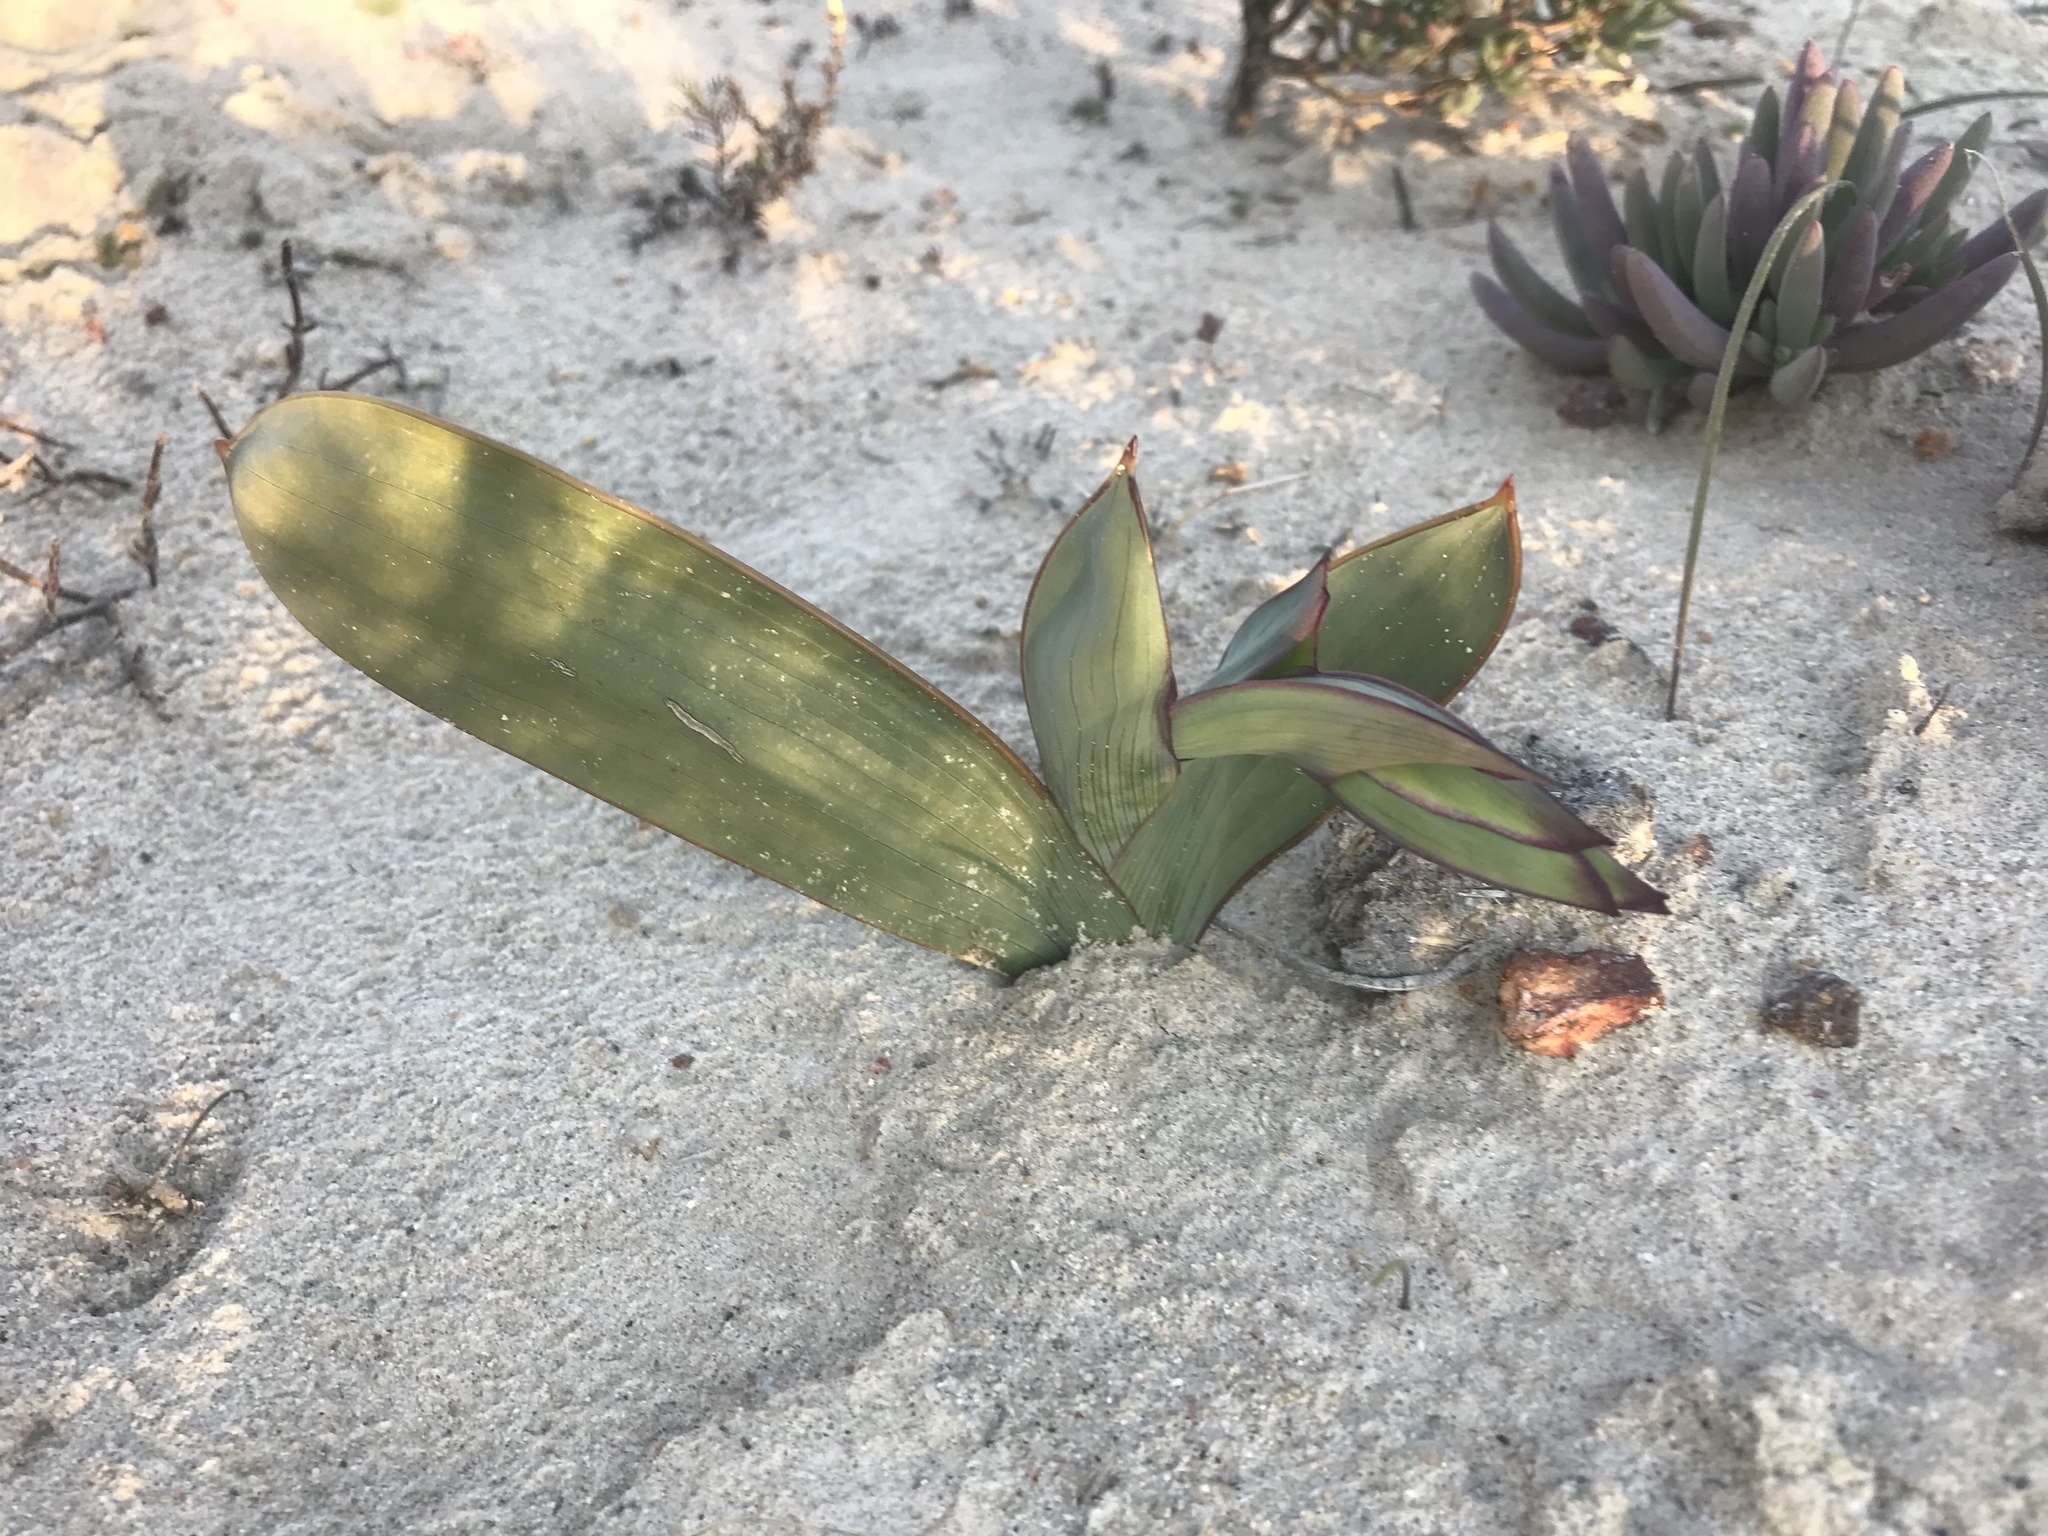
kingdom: Plantae
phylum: Tracheophyta
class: Liliopsida
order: Asparagales
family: Iridaceae
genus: Gladiolus
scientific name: Gladiolus equitans
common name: Large red kalkoentjie
